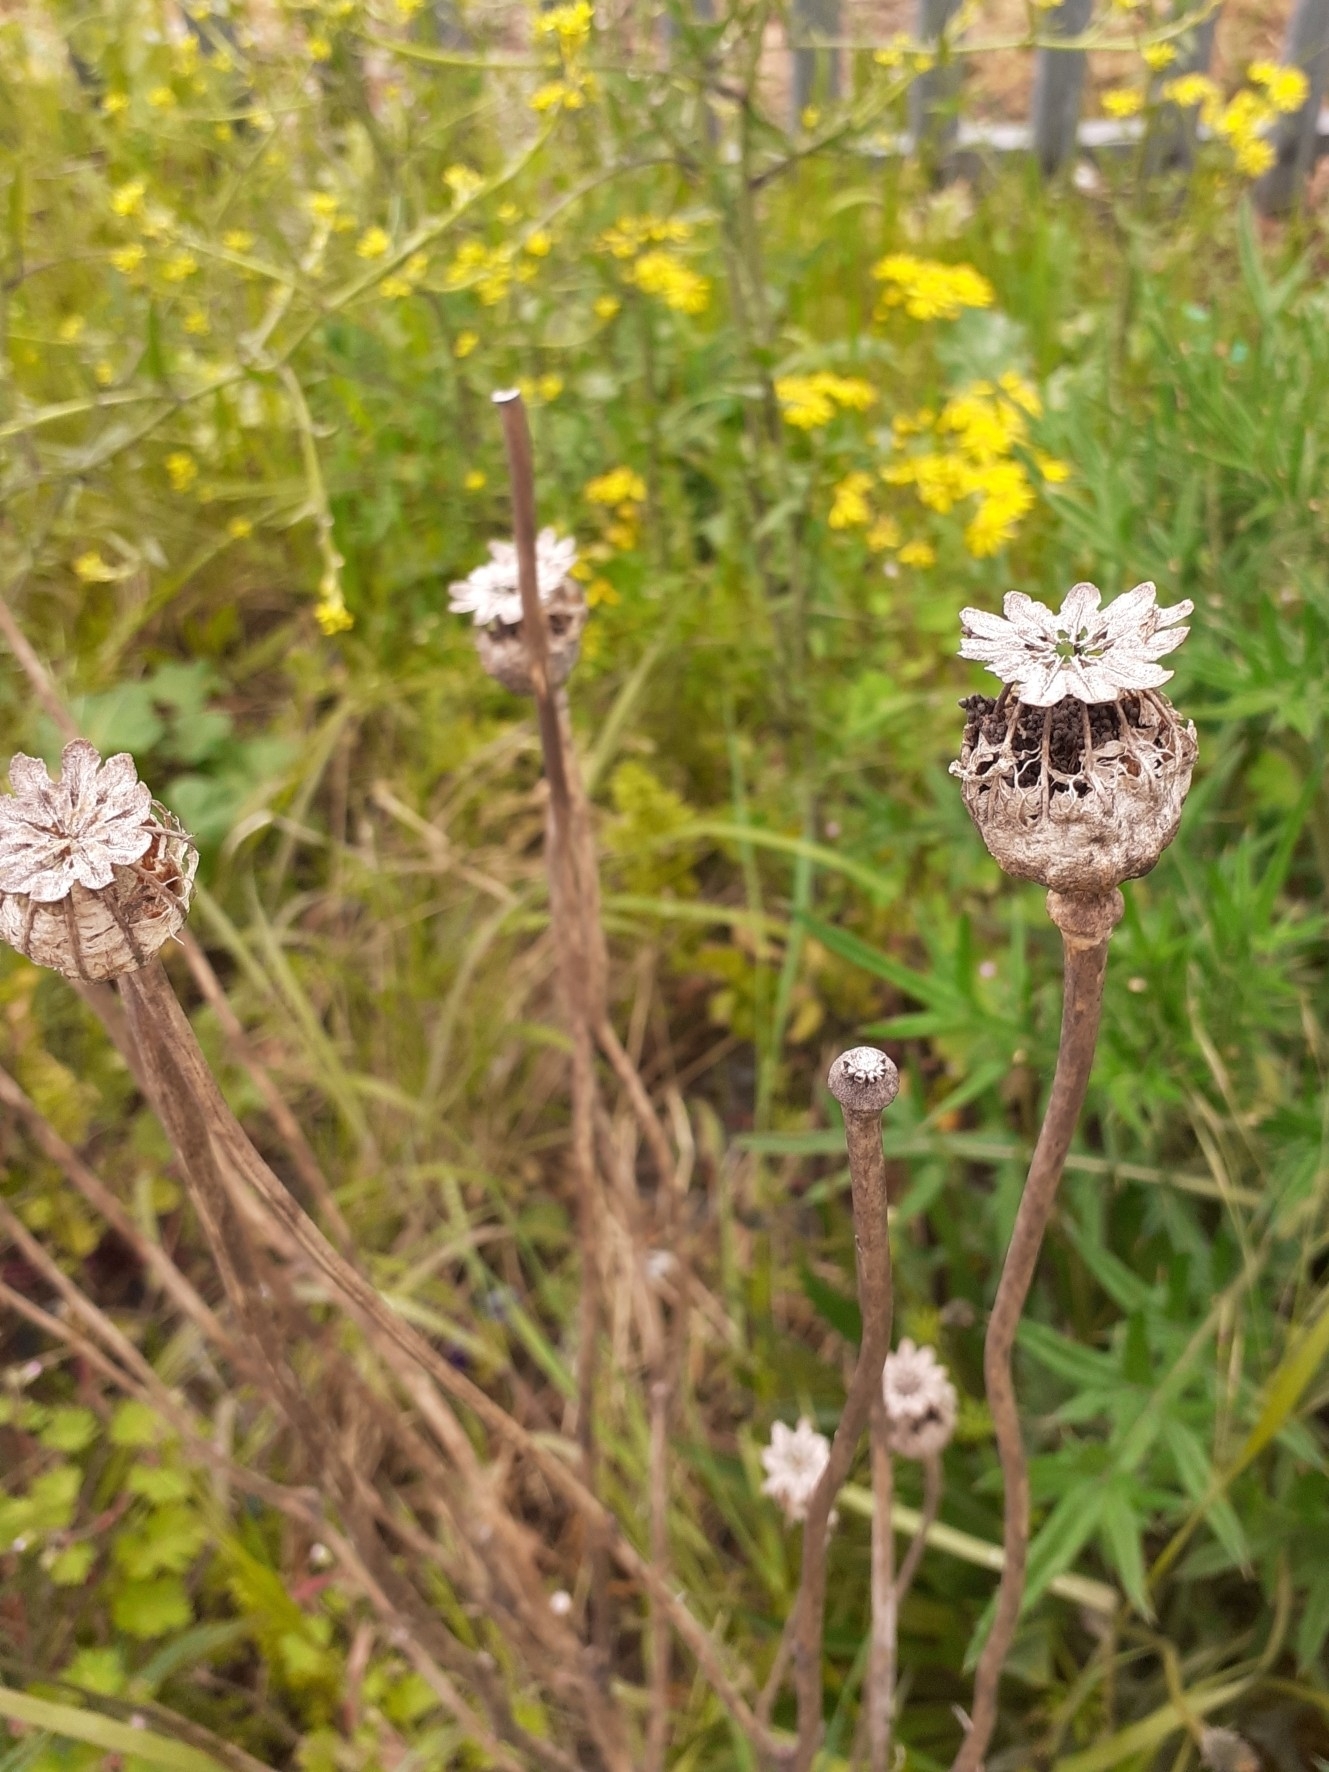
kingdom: Plantae
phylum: Tracheophyta
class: Magnoliopsida
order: Ranunculales
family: Papaveraceae
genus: Papaver
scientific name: Papaver somniferum
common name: Opium poppy
